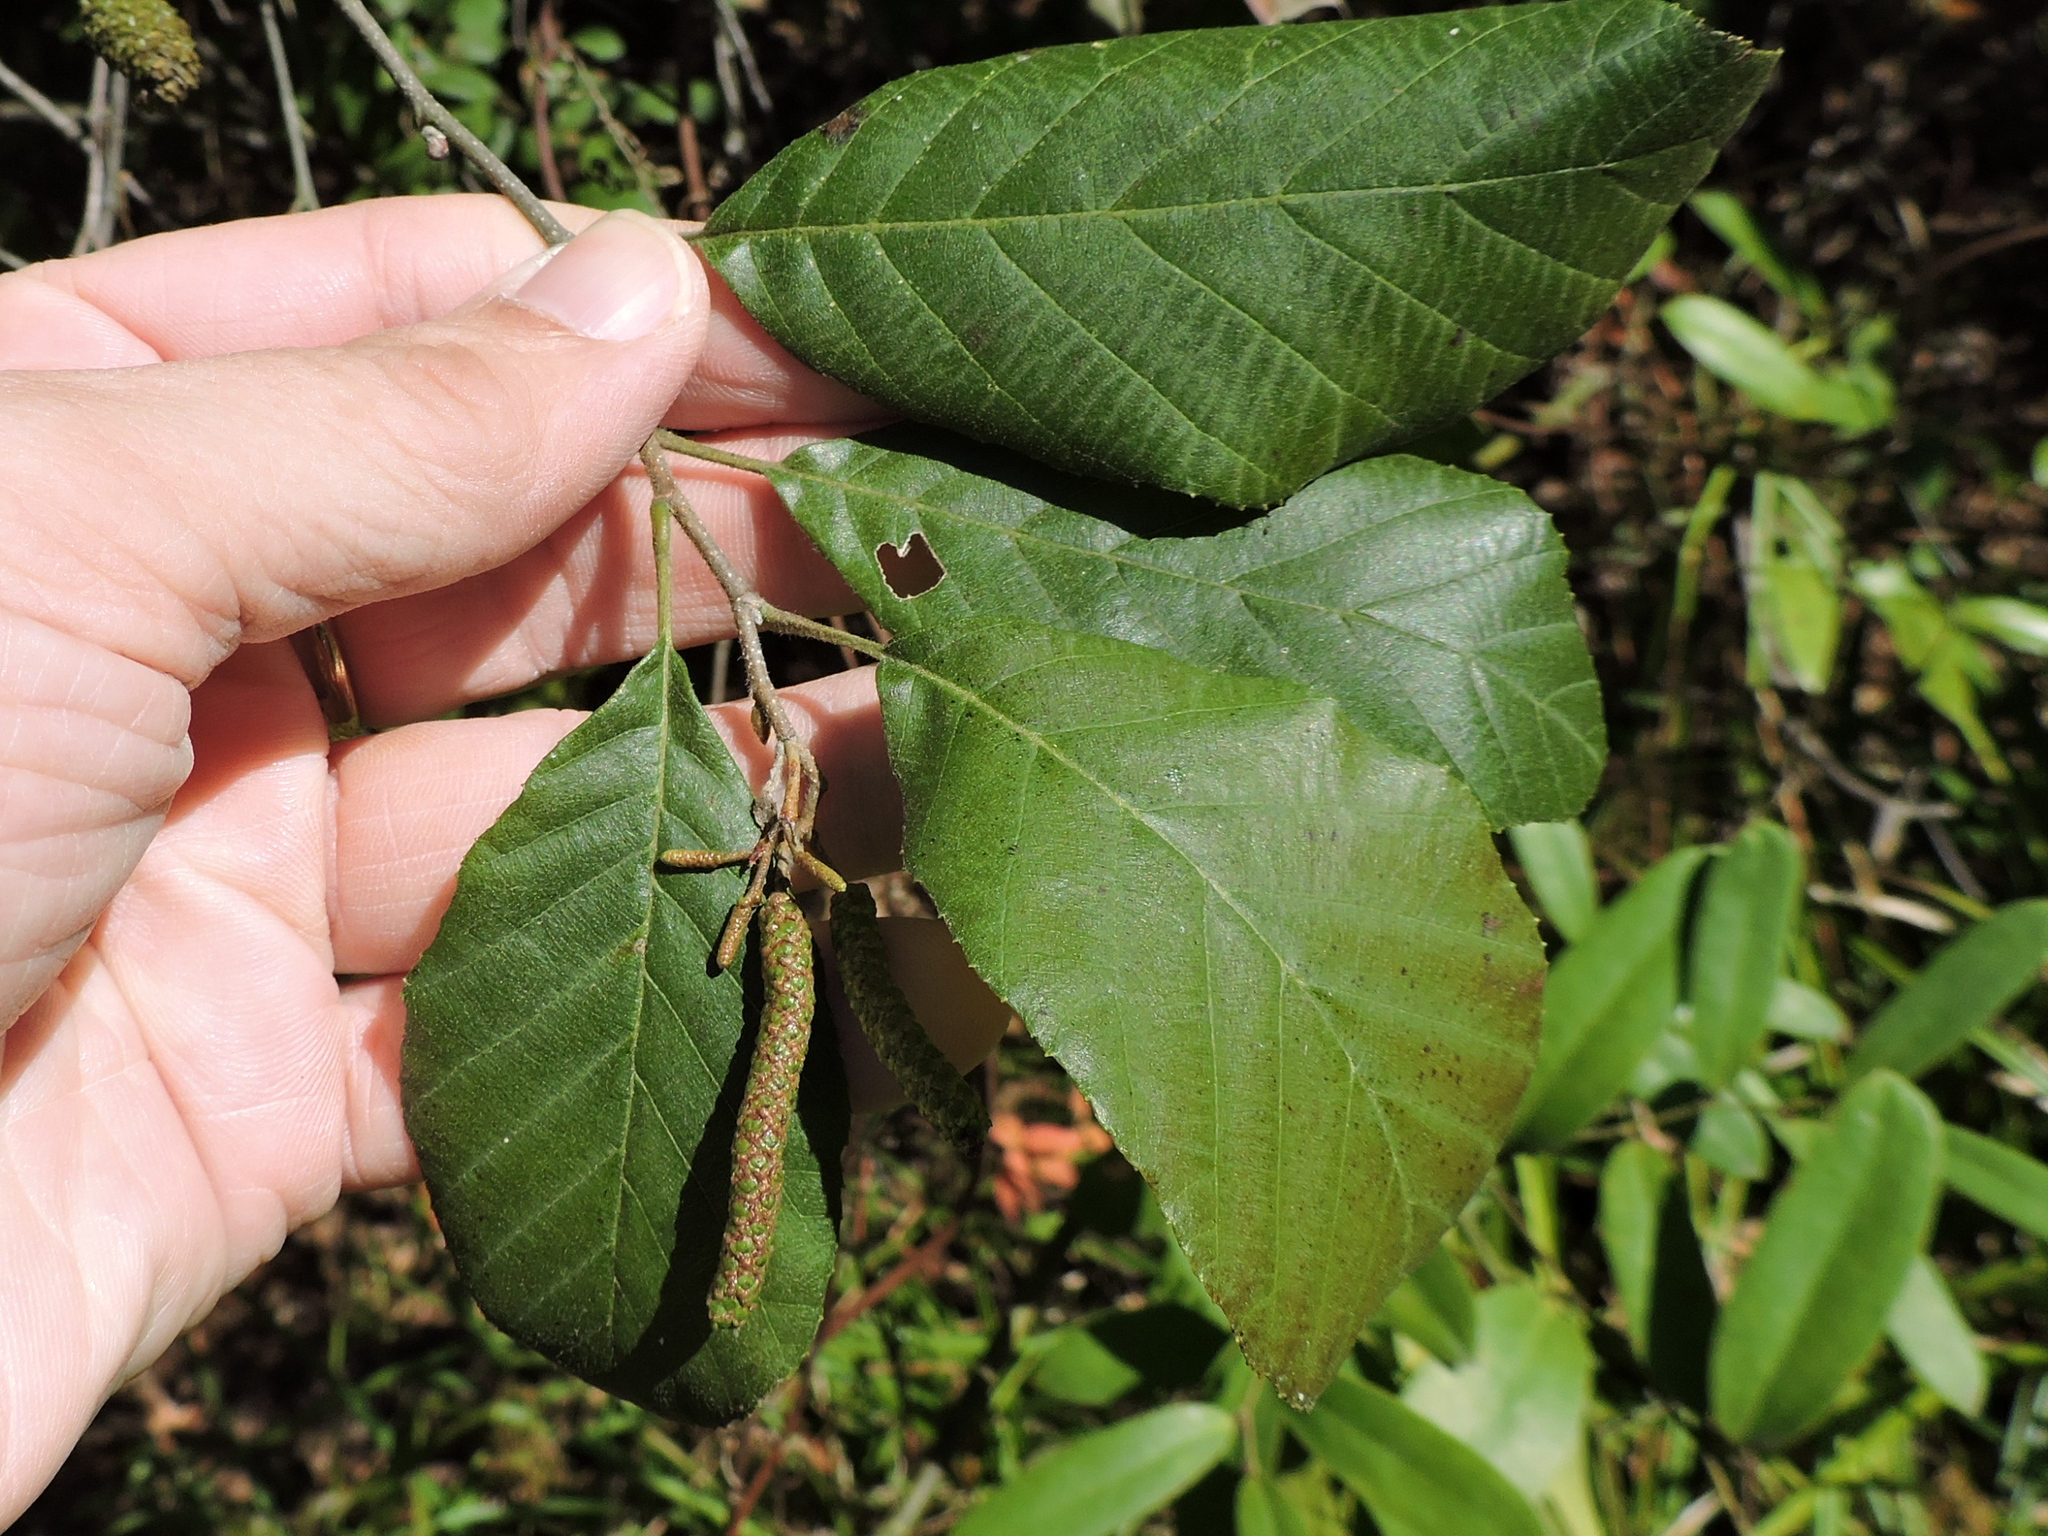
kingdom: Plantae
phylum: Tracheophyta
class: Magnoliopsida
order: Fagales
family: Betulaceae
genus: Alnus
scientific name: Alnus serrulata
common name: Hazel alder
